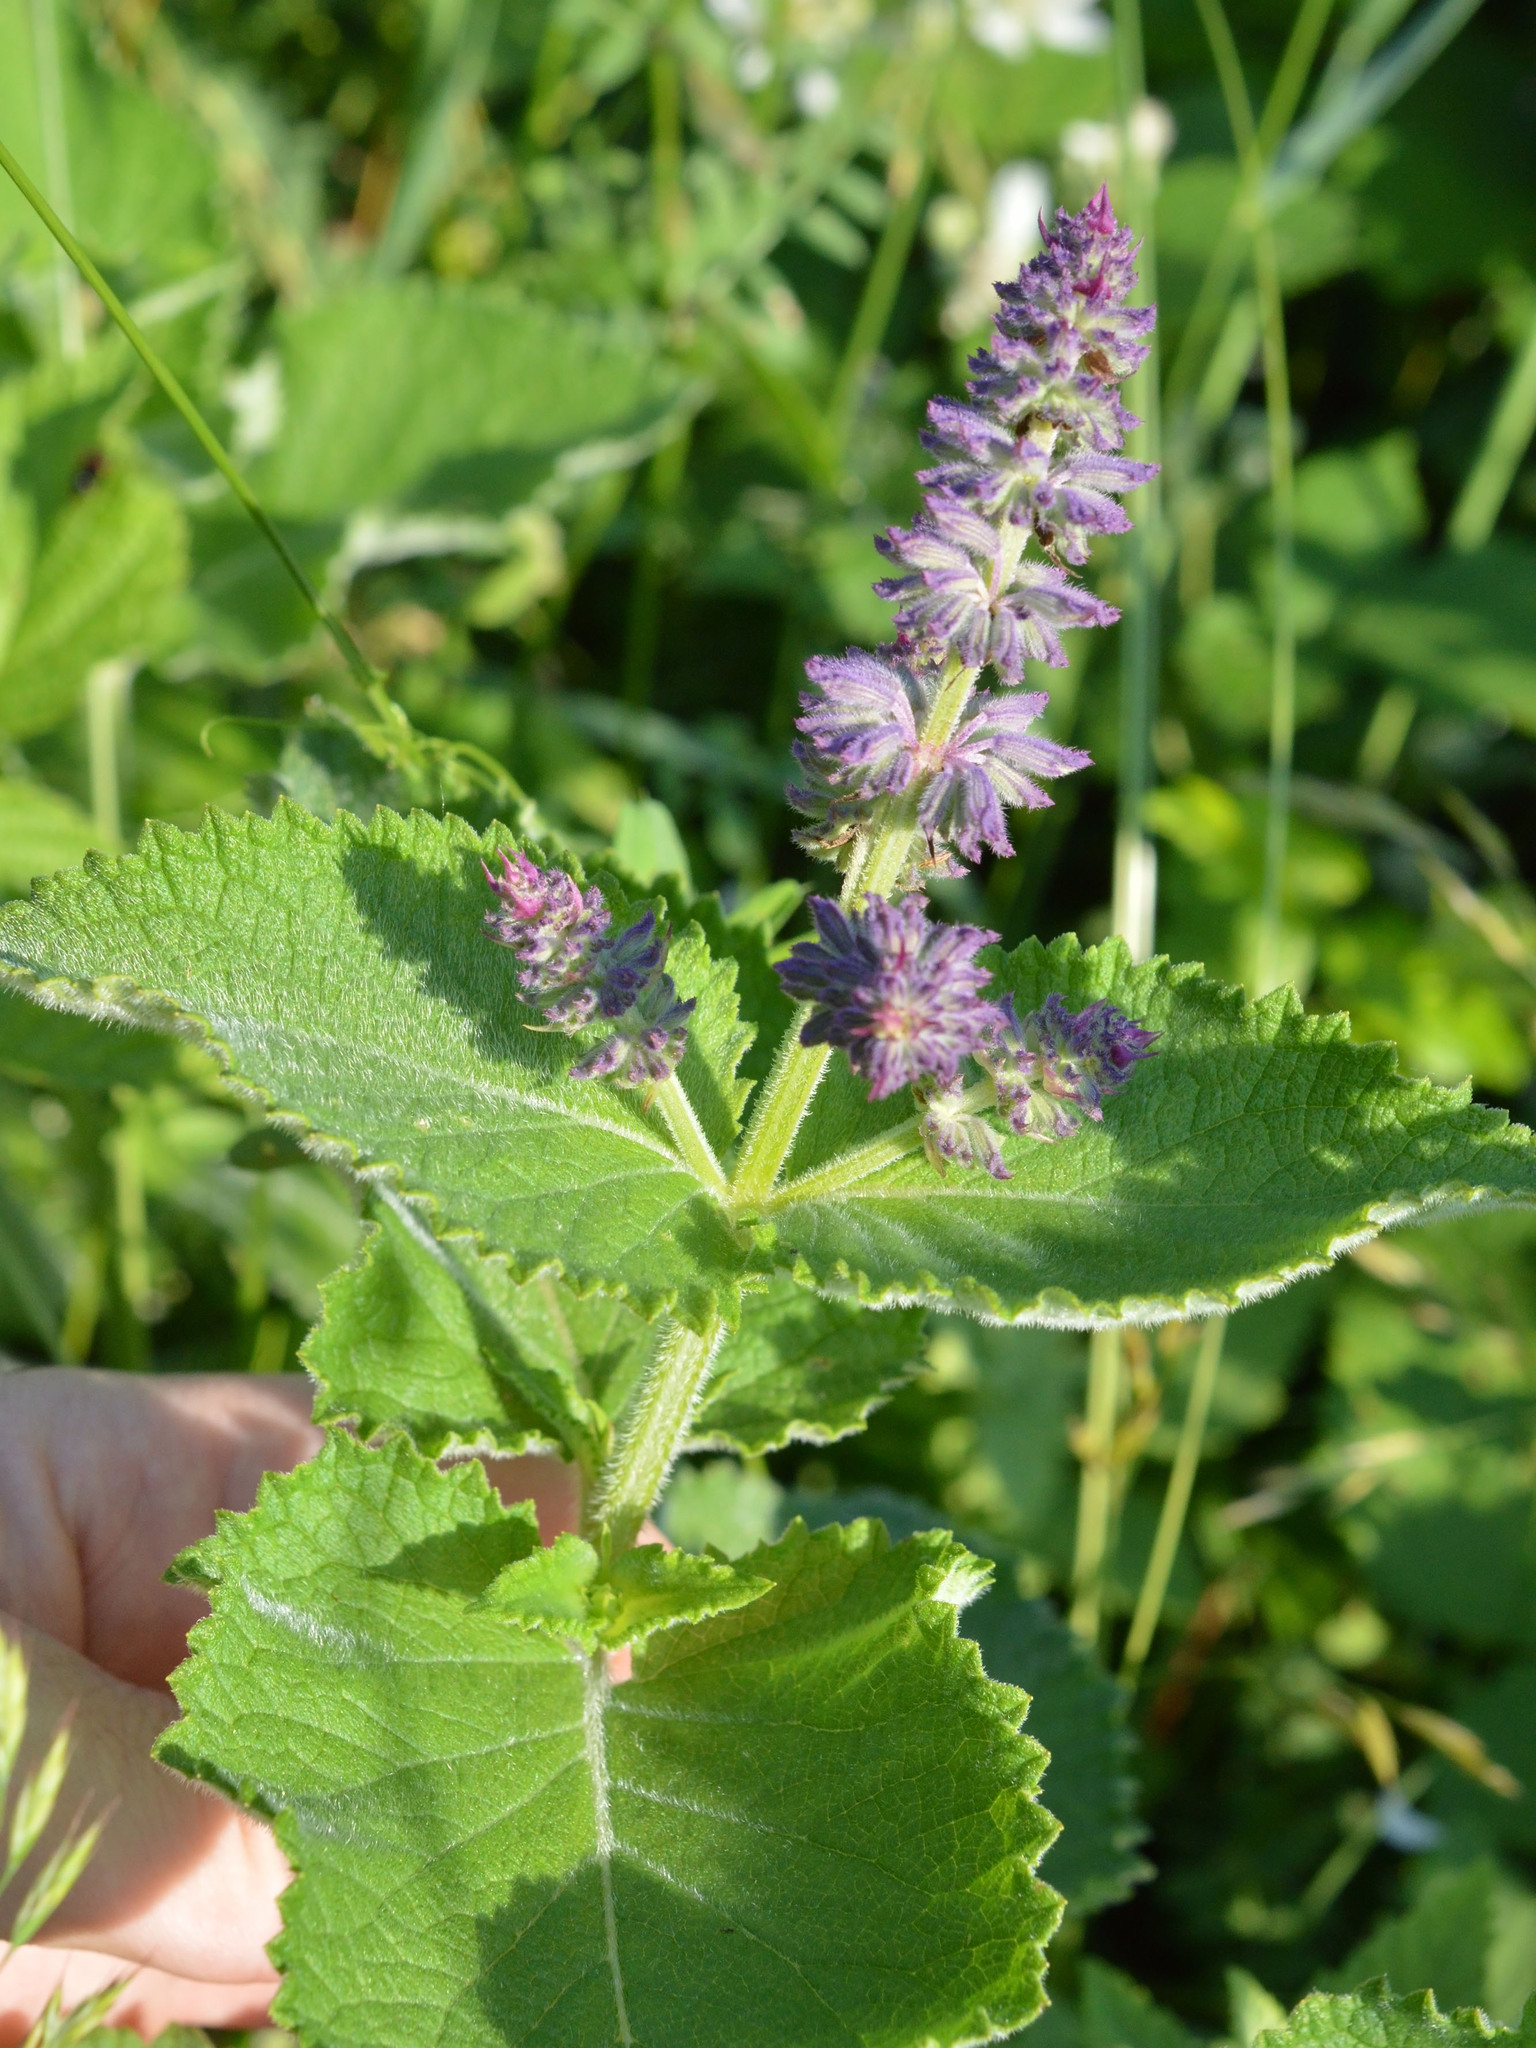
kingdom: Plantae
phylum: Tracheophyta
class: Magnoliopsida
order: Lamiales
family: Lamiaceae
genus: Salvia
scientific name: Salvia verticillata
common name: Whorled clary
